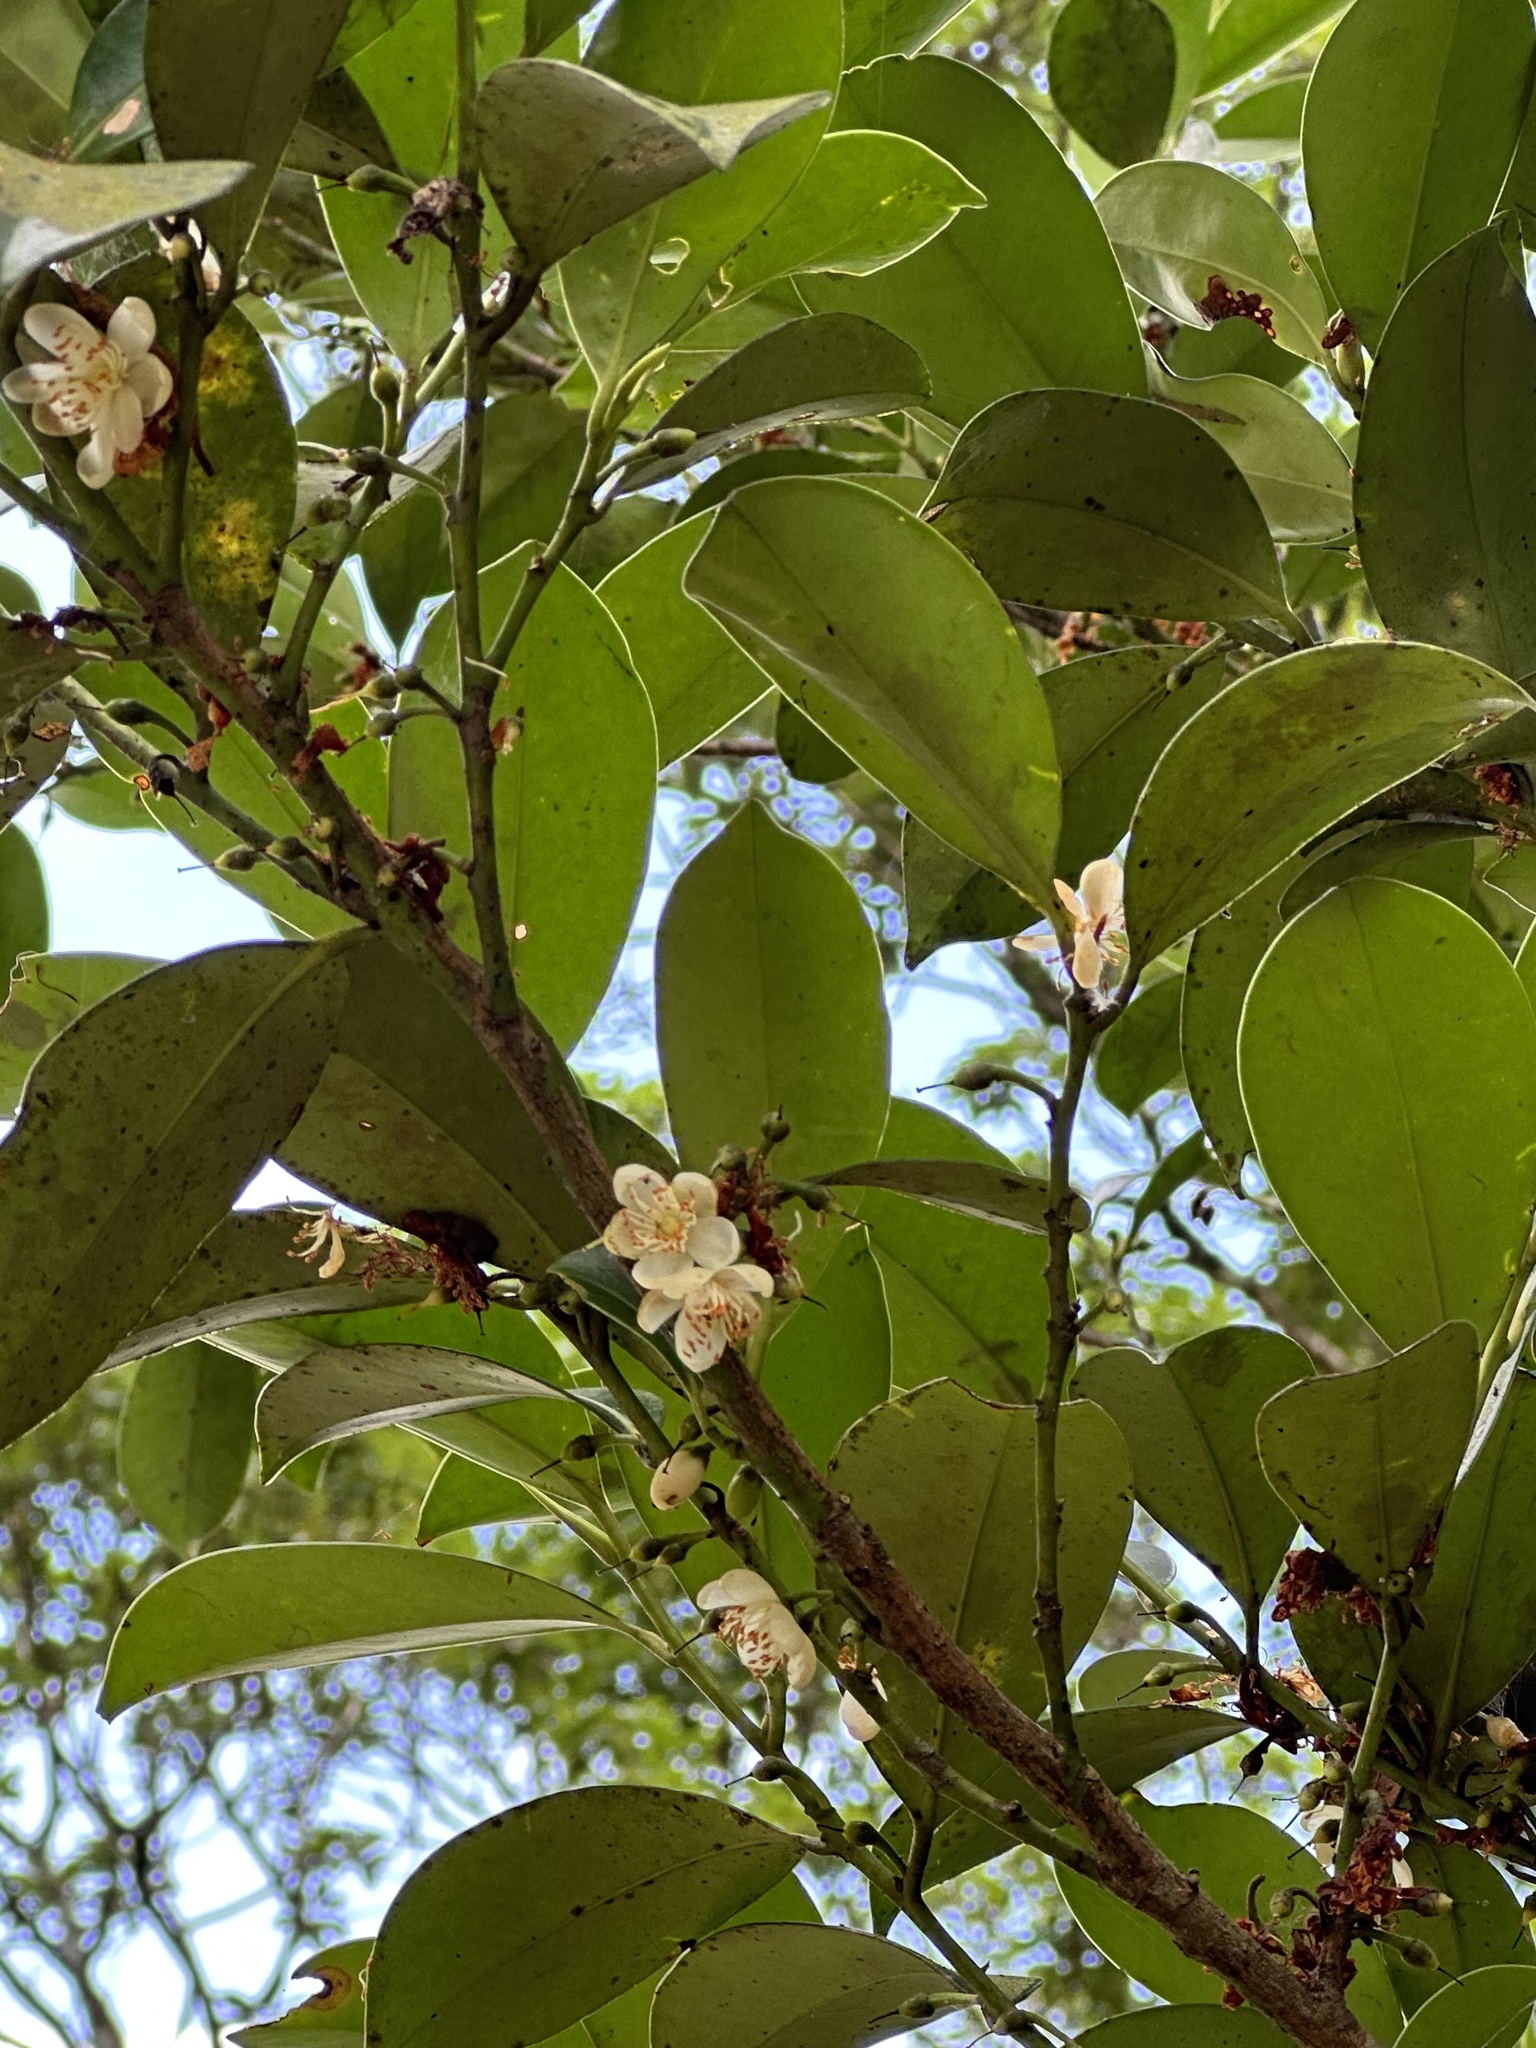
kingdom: Plantae
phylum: Tracheophyta
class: Magnoliopsida
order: Ericales
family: Pentaphylacaceae
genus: Cleyera
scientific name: Cleyera japonica
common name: Sakaki
